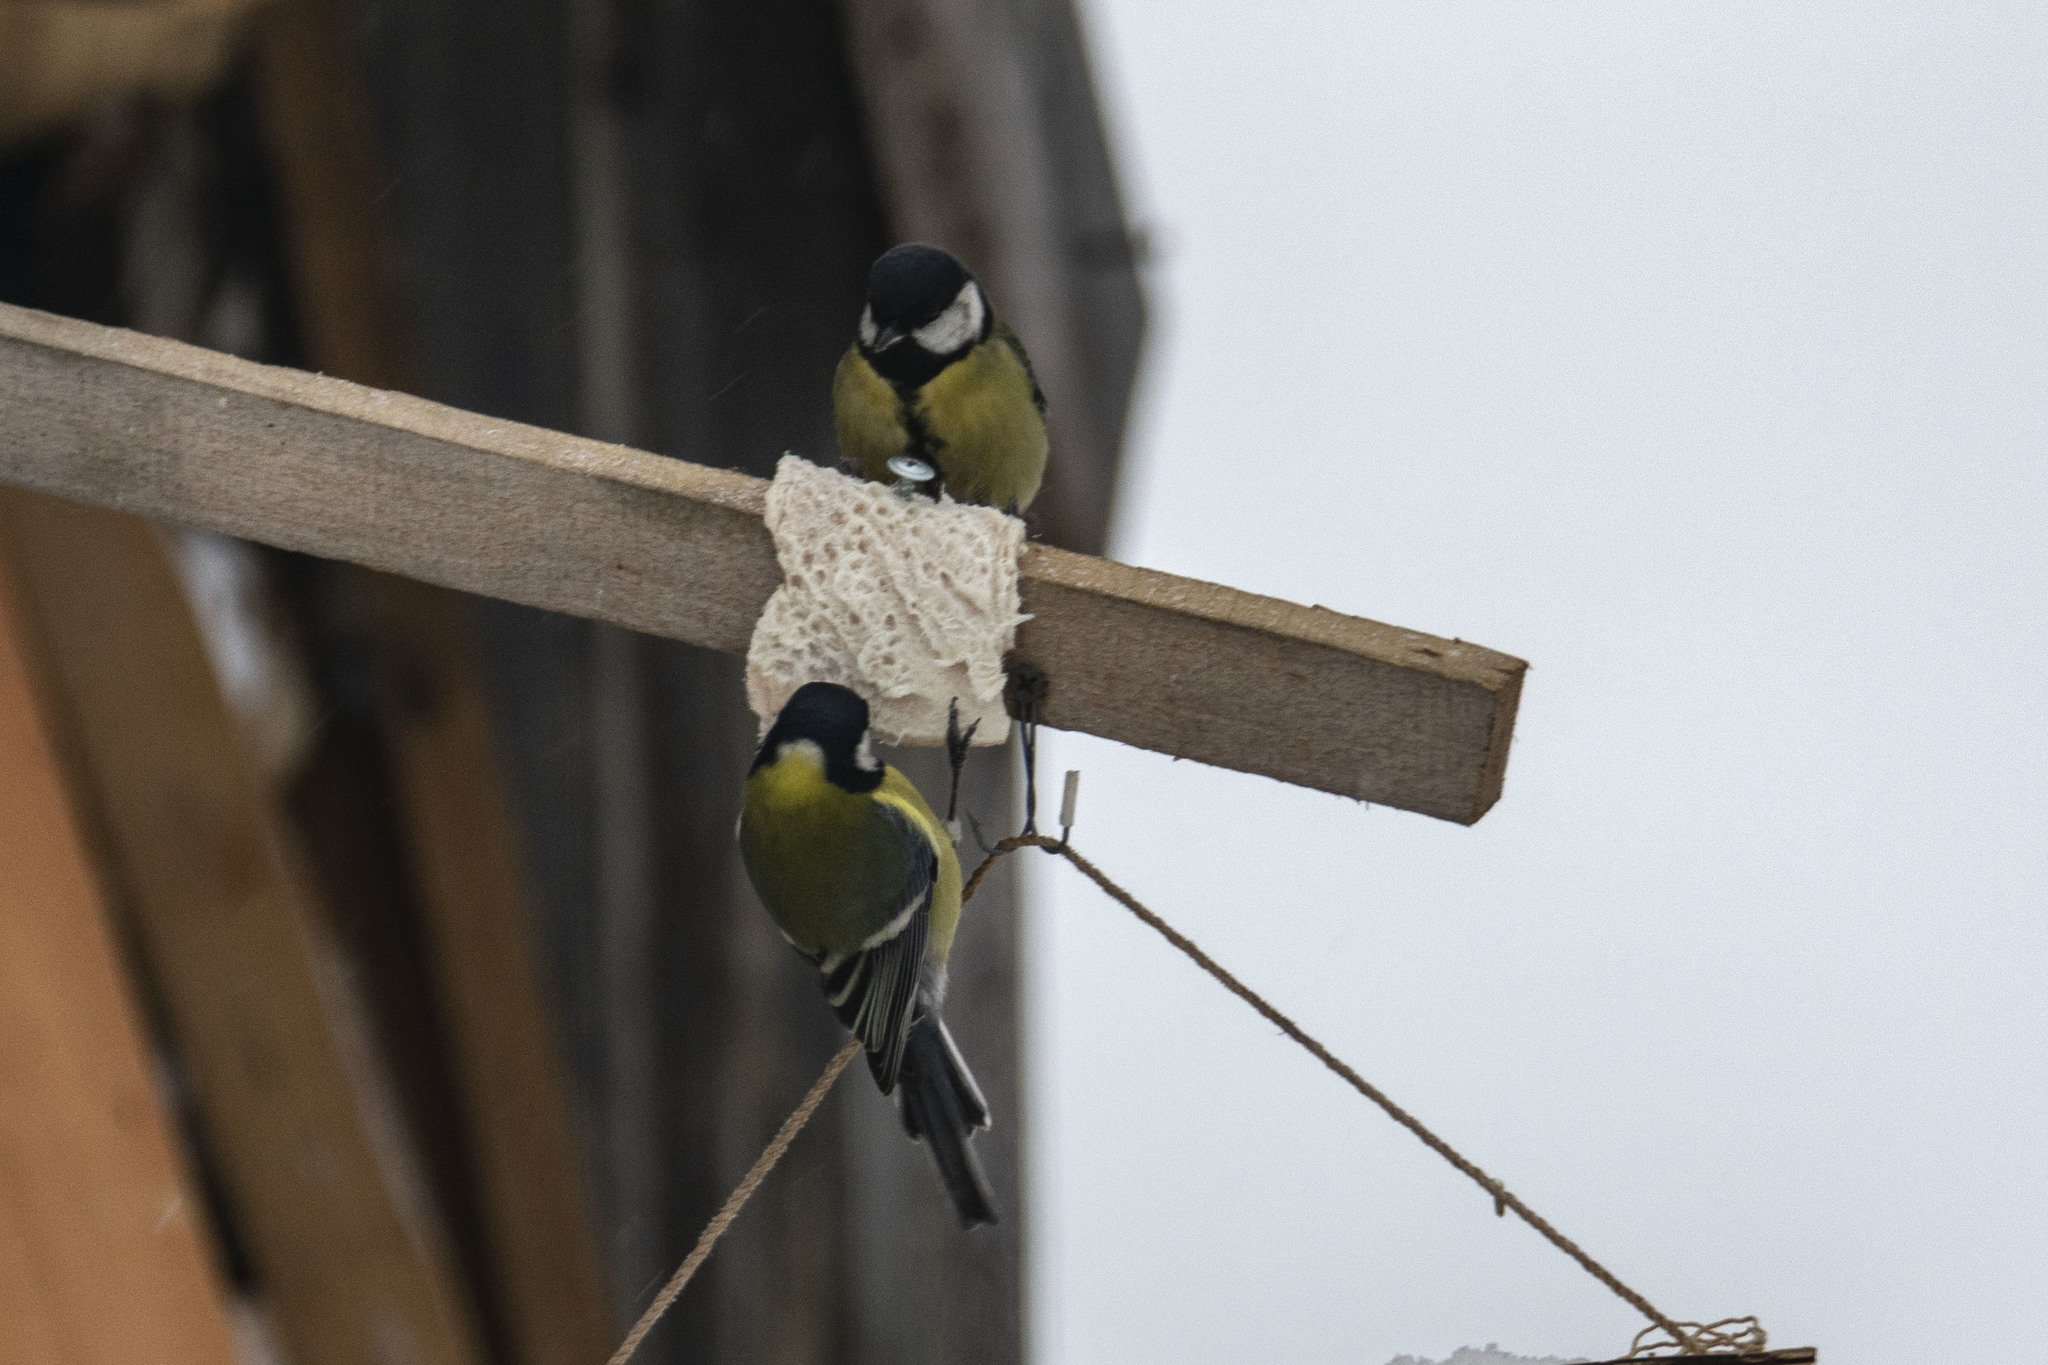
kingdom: Animalia
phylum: Chordata
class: Aves
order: Passeriformes
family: Paridae
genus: Parus
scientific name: Parus major
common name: Great tit
